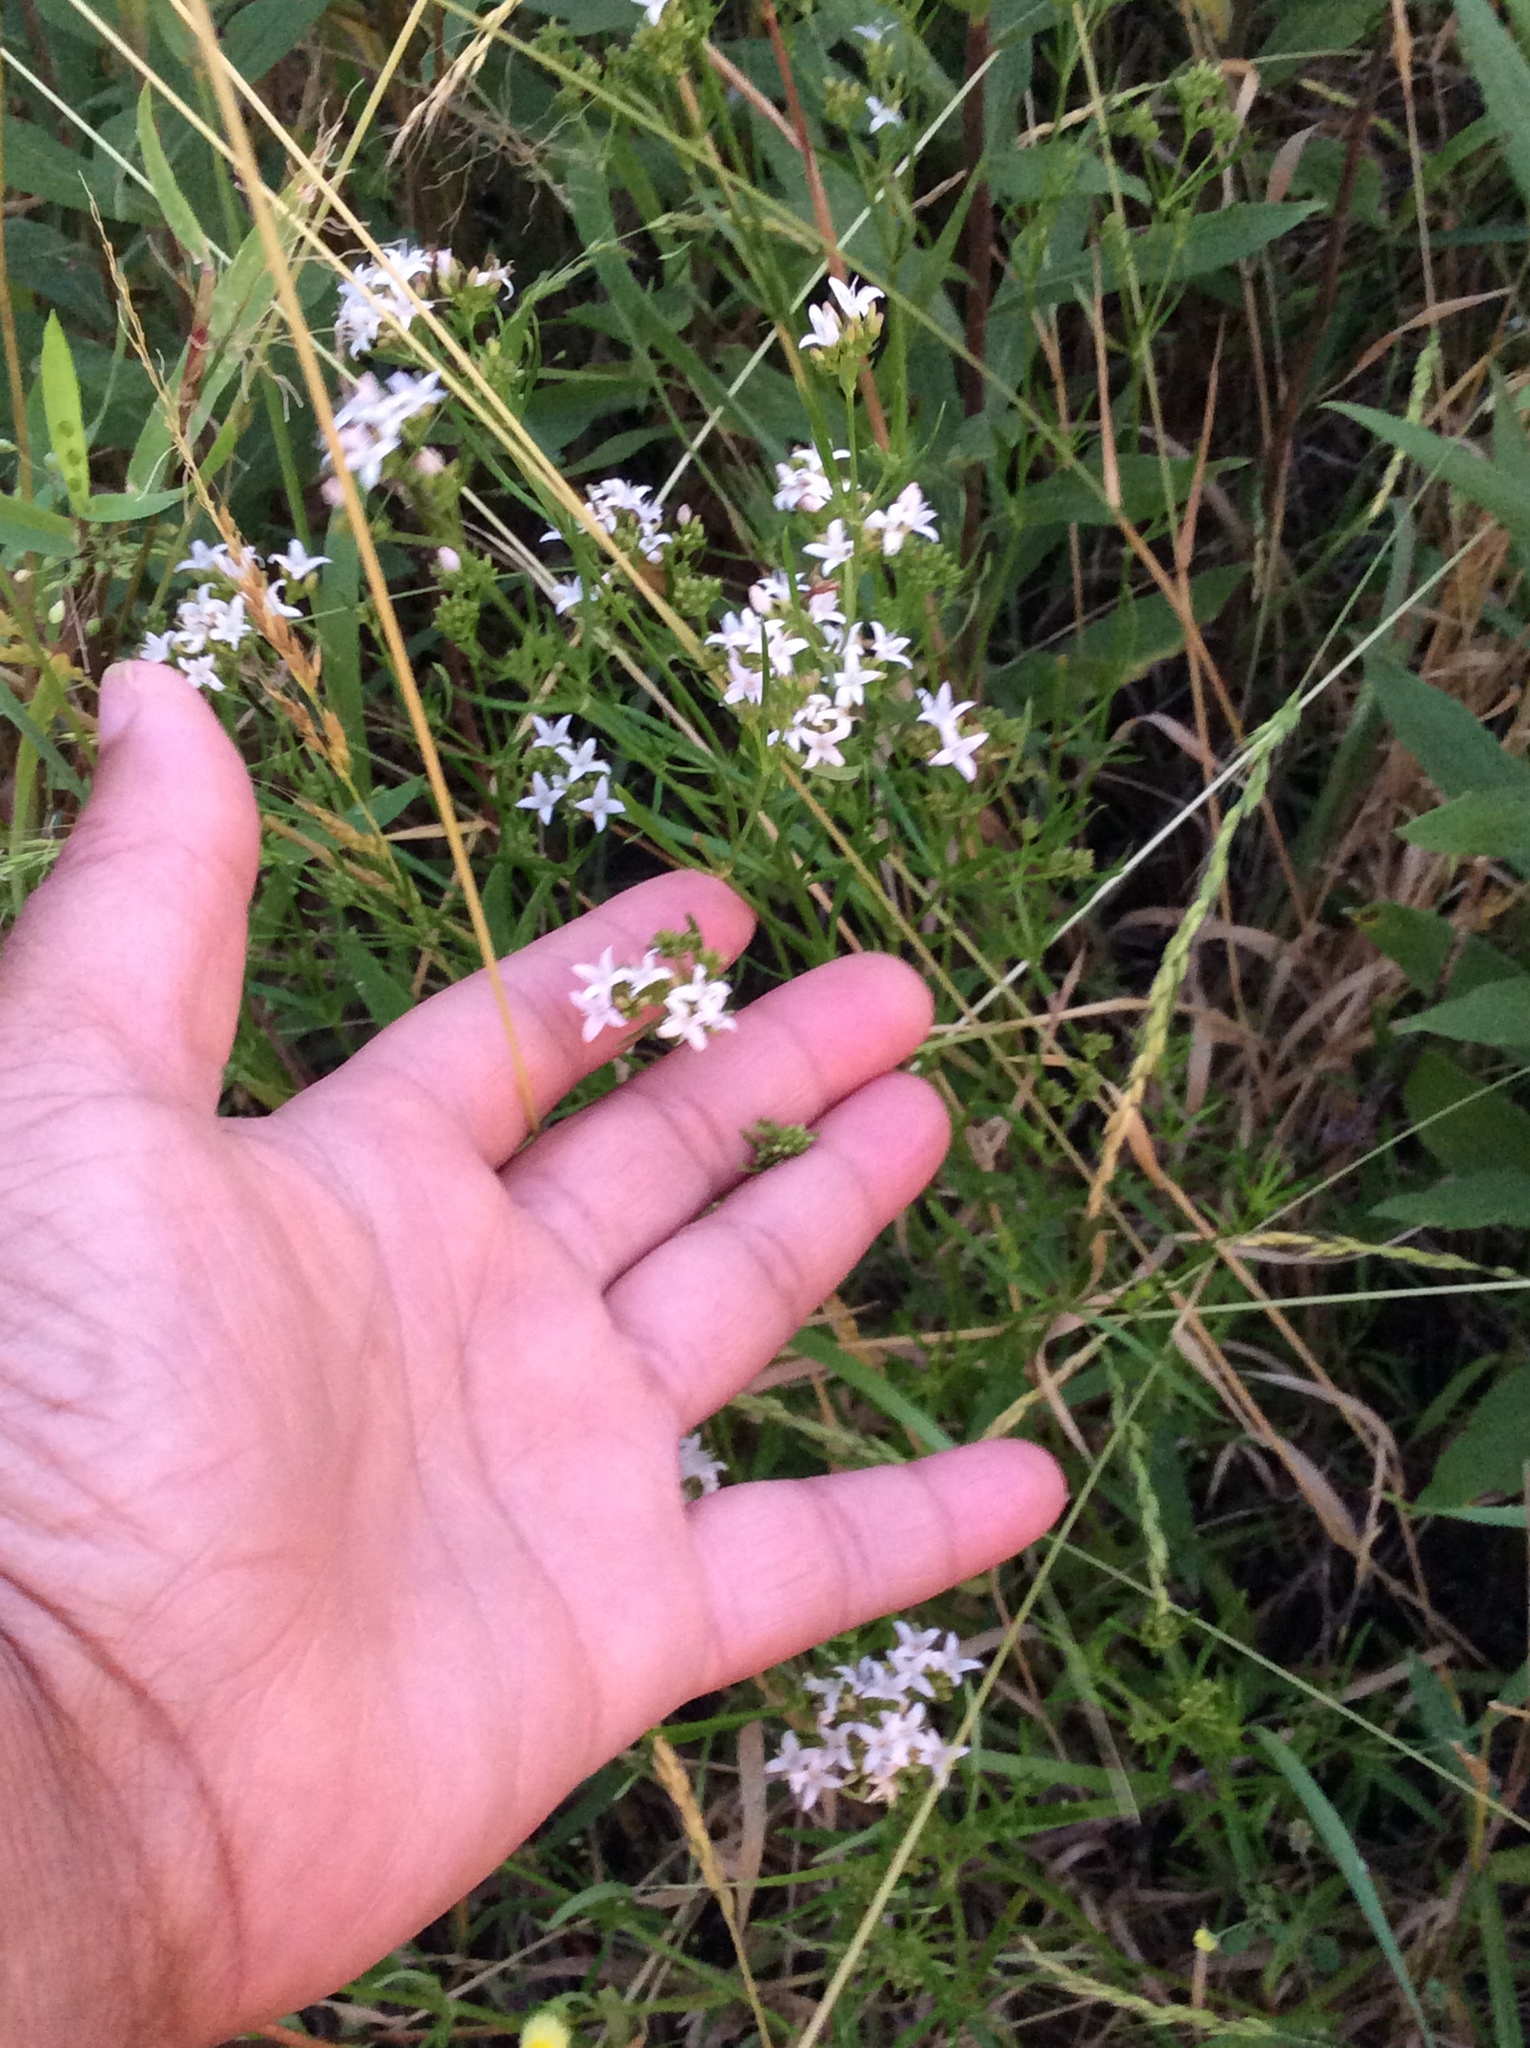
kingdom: Plantae
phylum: Tracheophyta
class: Magnoliopsida
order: Gentianales
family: Rubiaceae
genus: Stenaria
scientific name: Stenaria nigricans
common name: Diamondflowers
